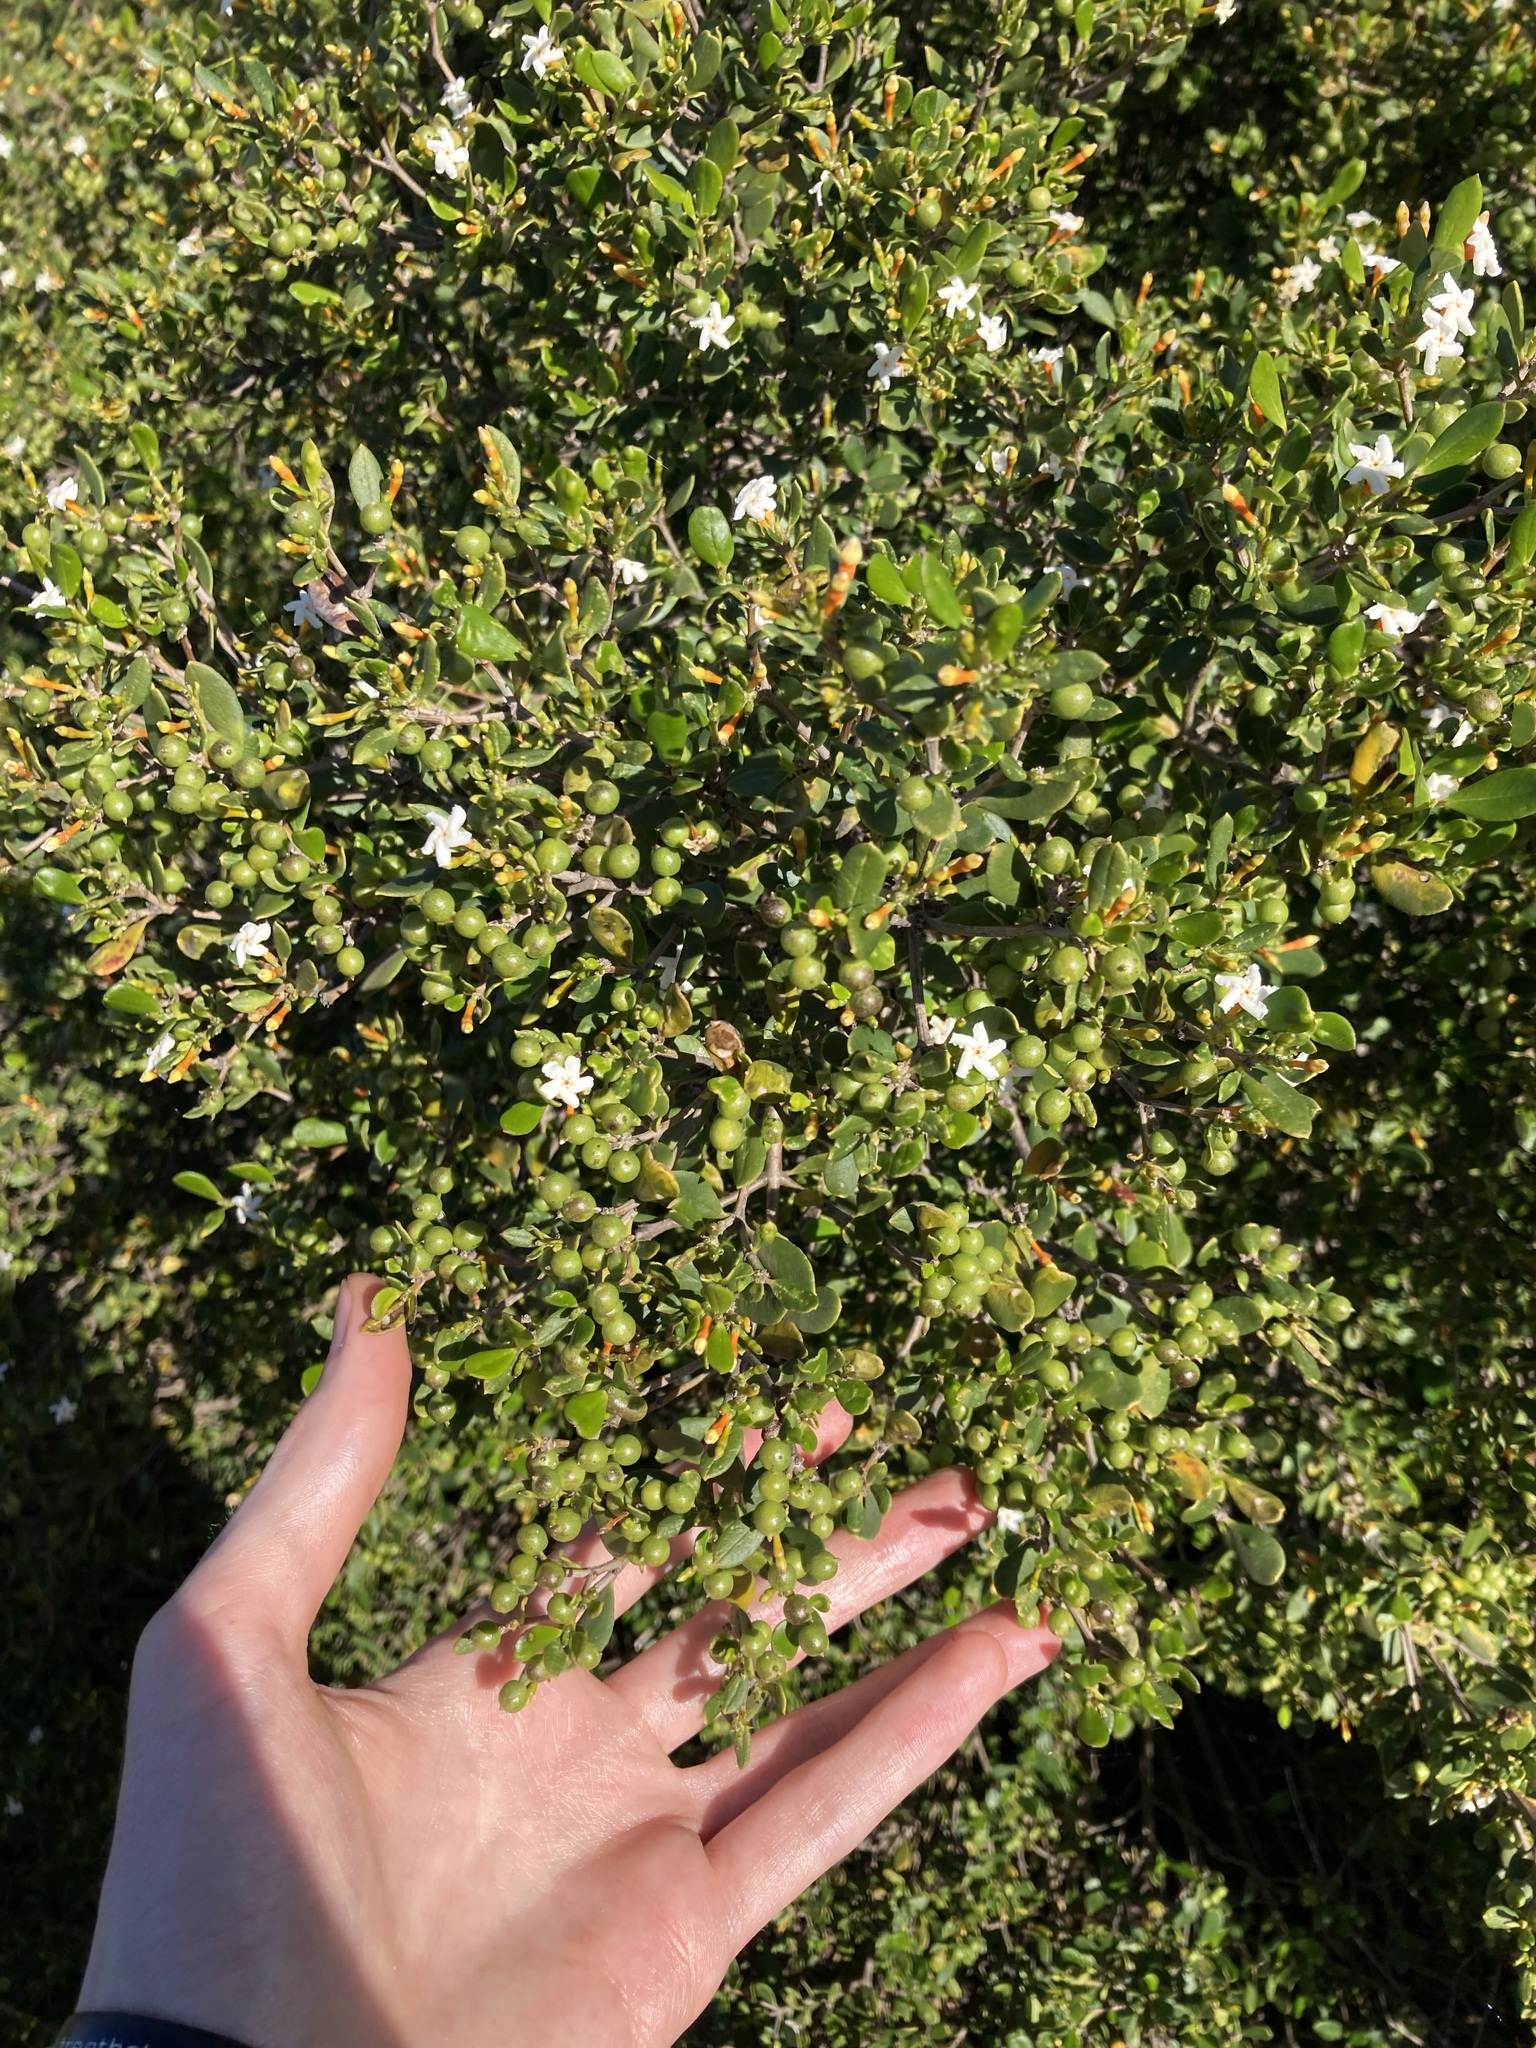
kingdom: Plantae
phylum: Tracheophyta
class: Magnoliopsida
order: Gentianales
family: Apocynaceae
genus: Alyxia
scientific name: Alyxia buxifolia
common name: Dysentery-bush
